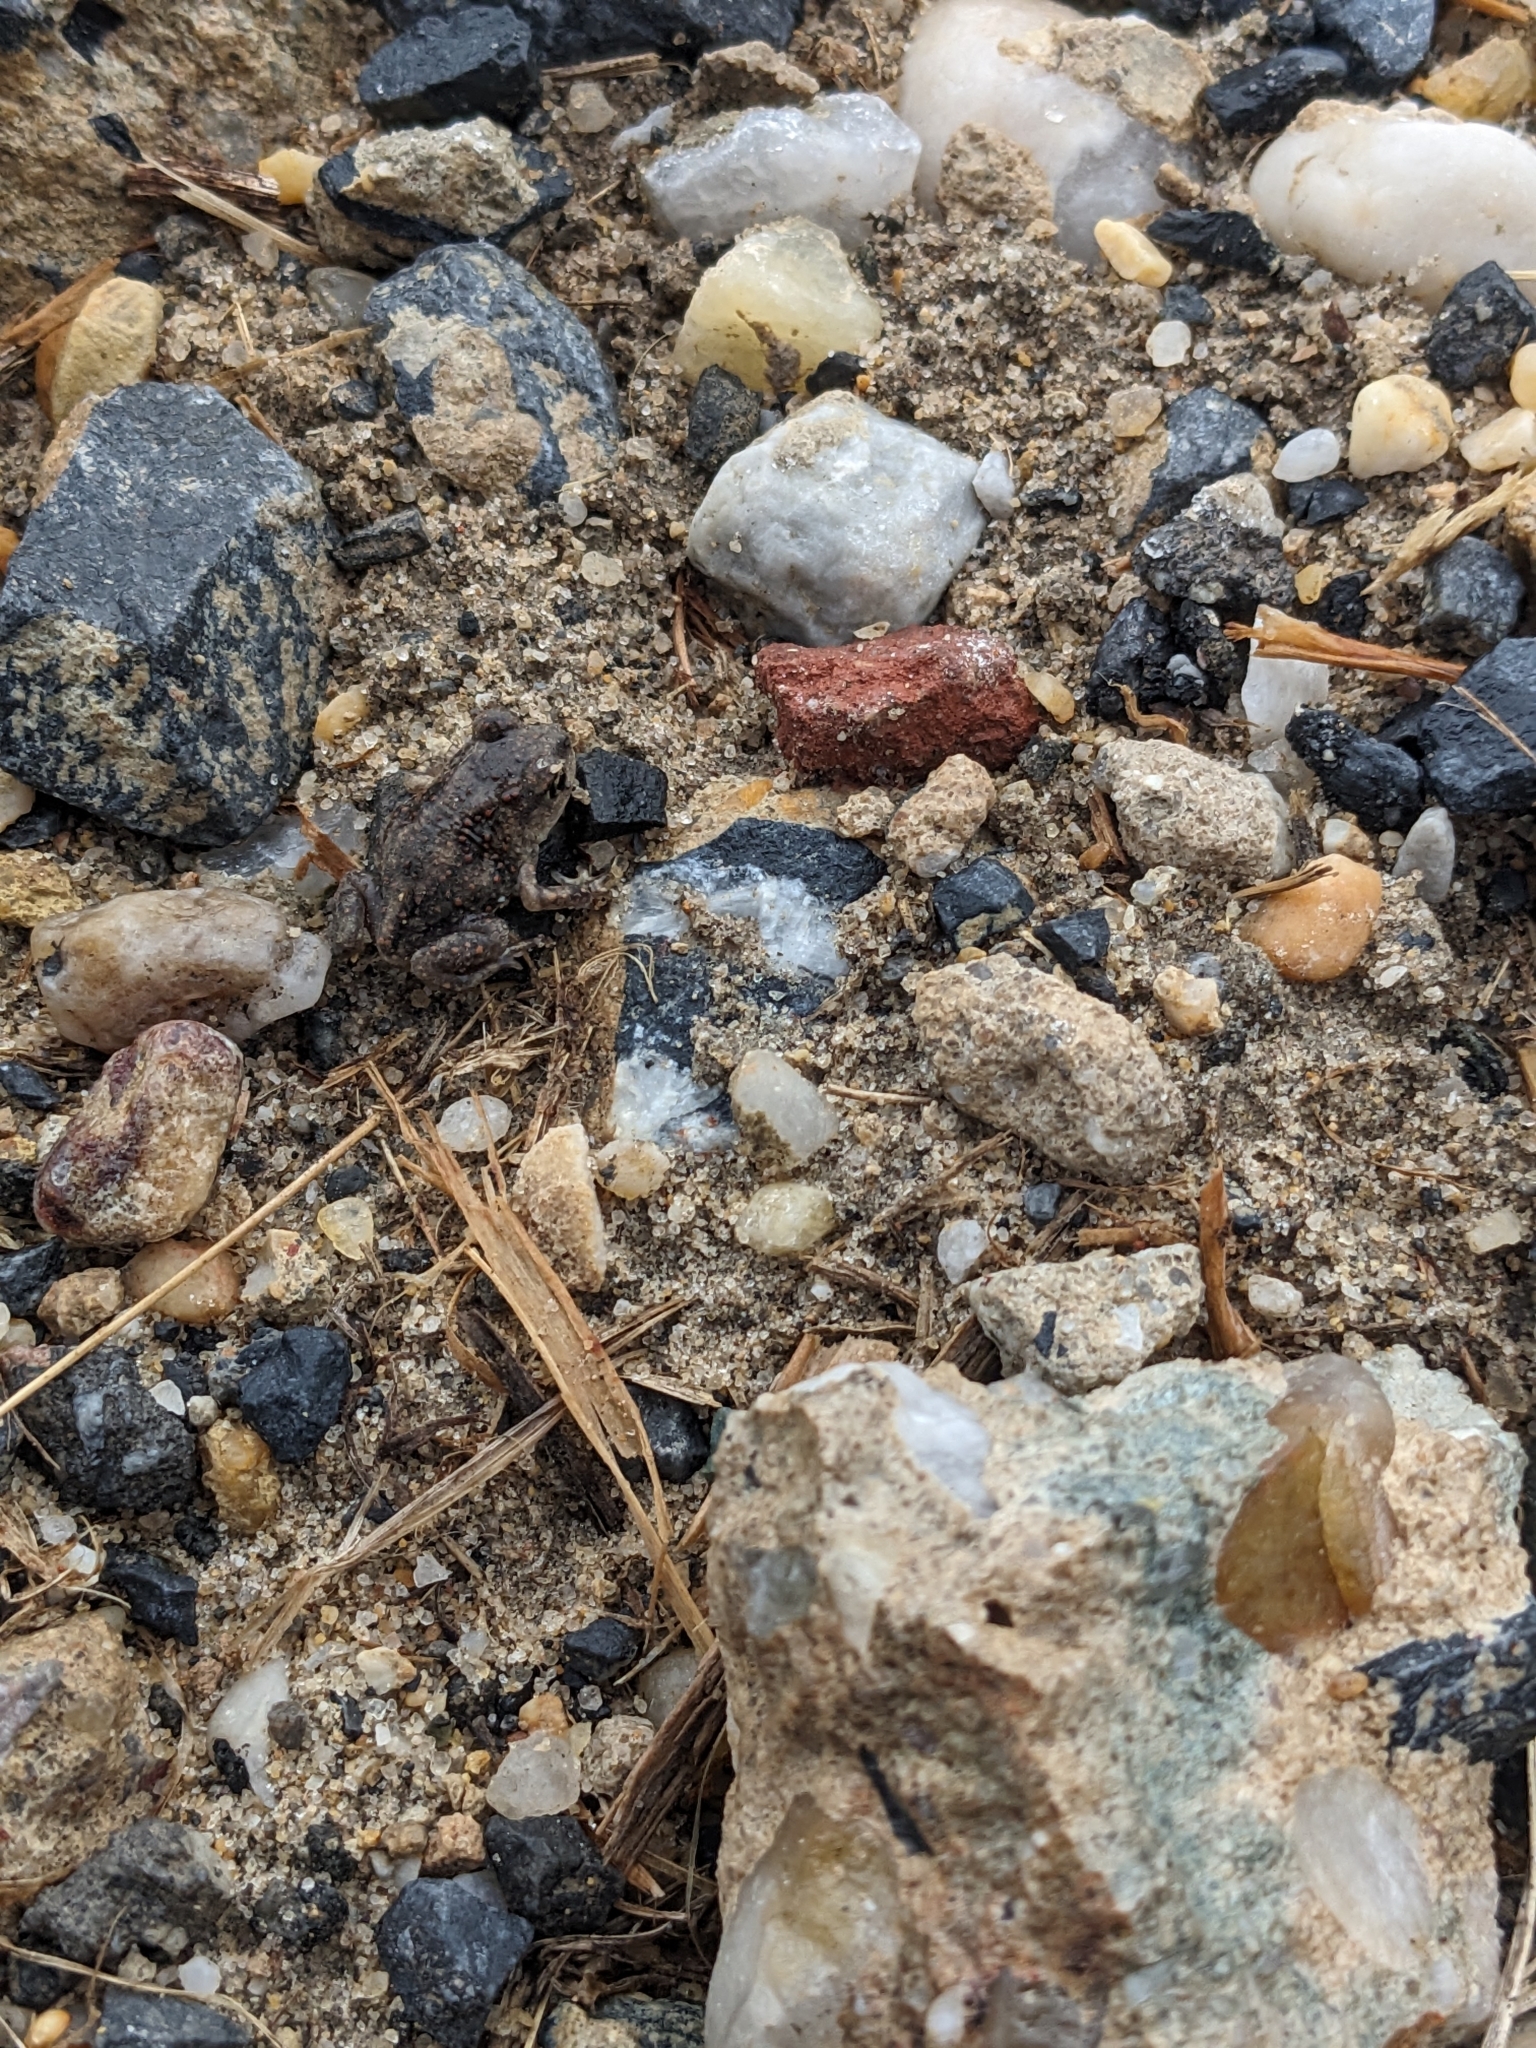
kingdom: Animalia
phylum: Chordata
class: Amphibia
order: Anura
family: Scaphiopodidae
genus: Scaphiopus
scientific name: Scaphiopus holbrookii
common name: Eastern spadefoot toad
